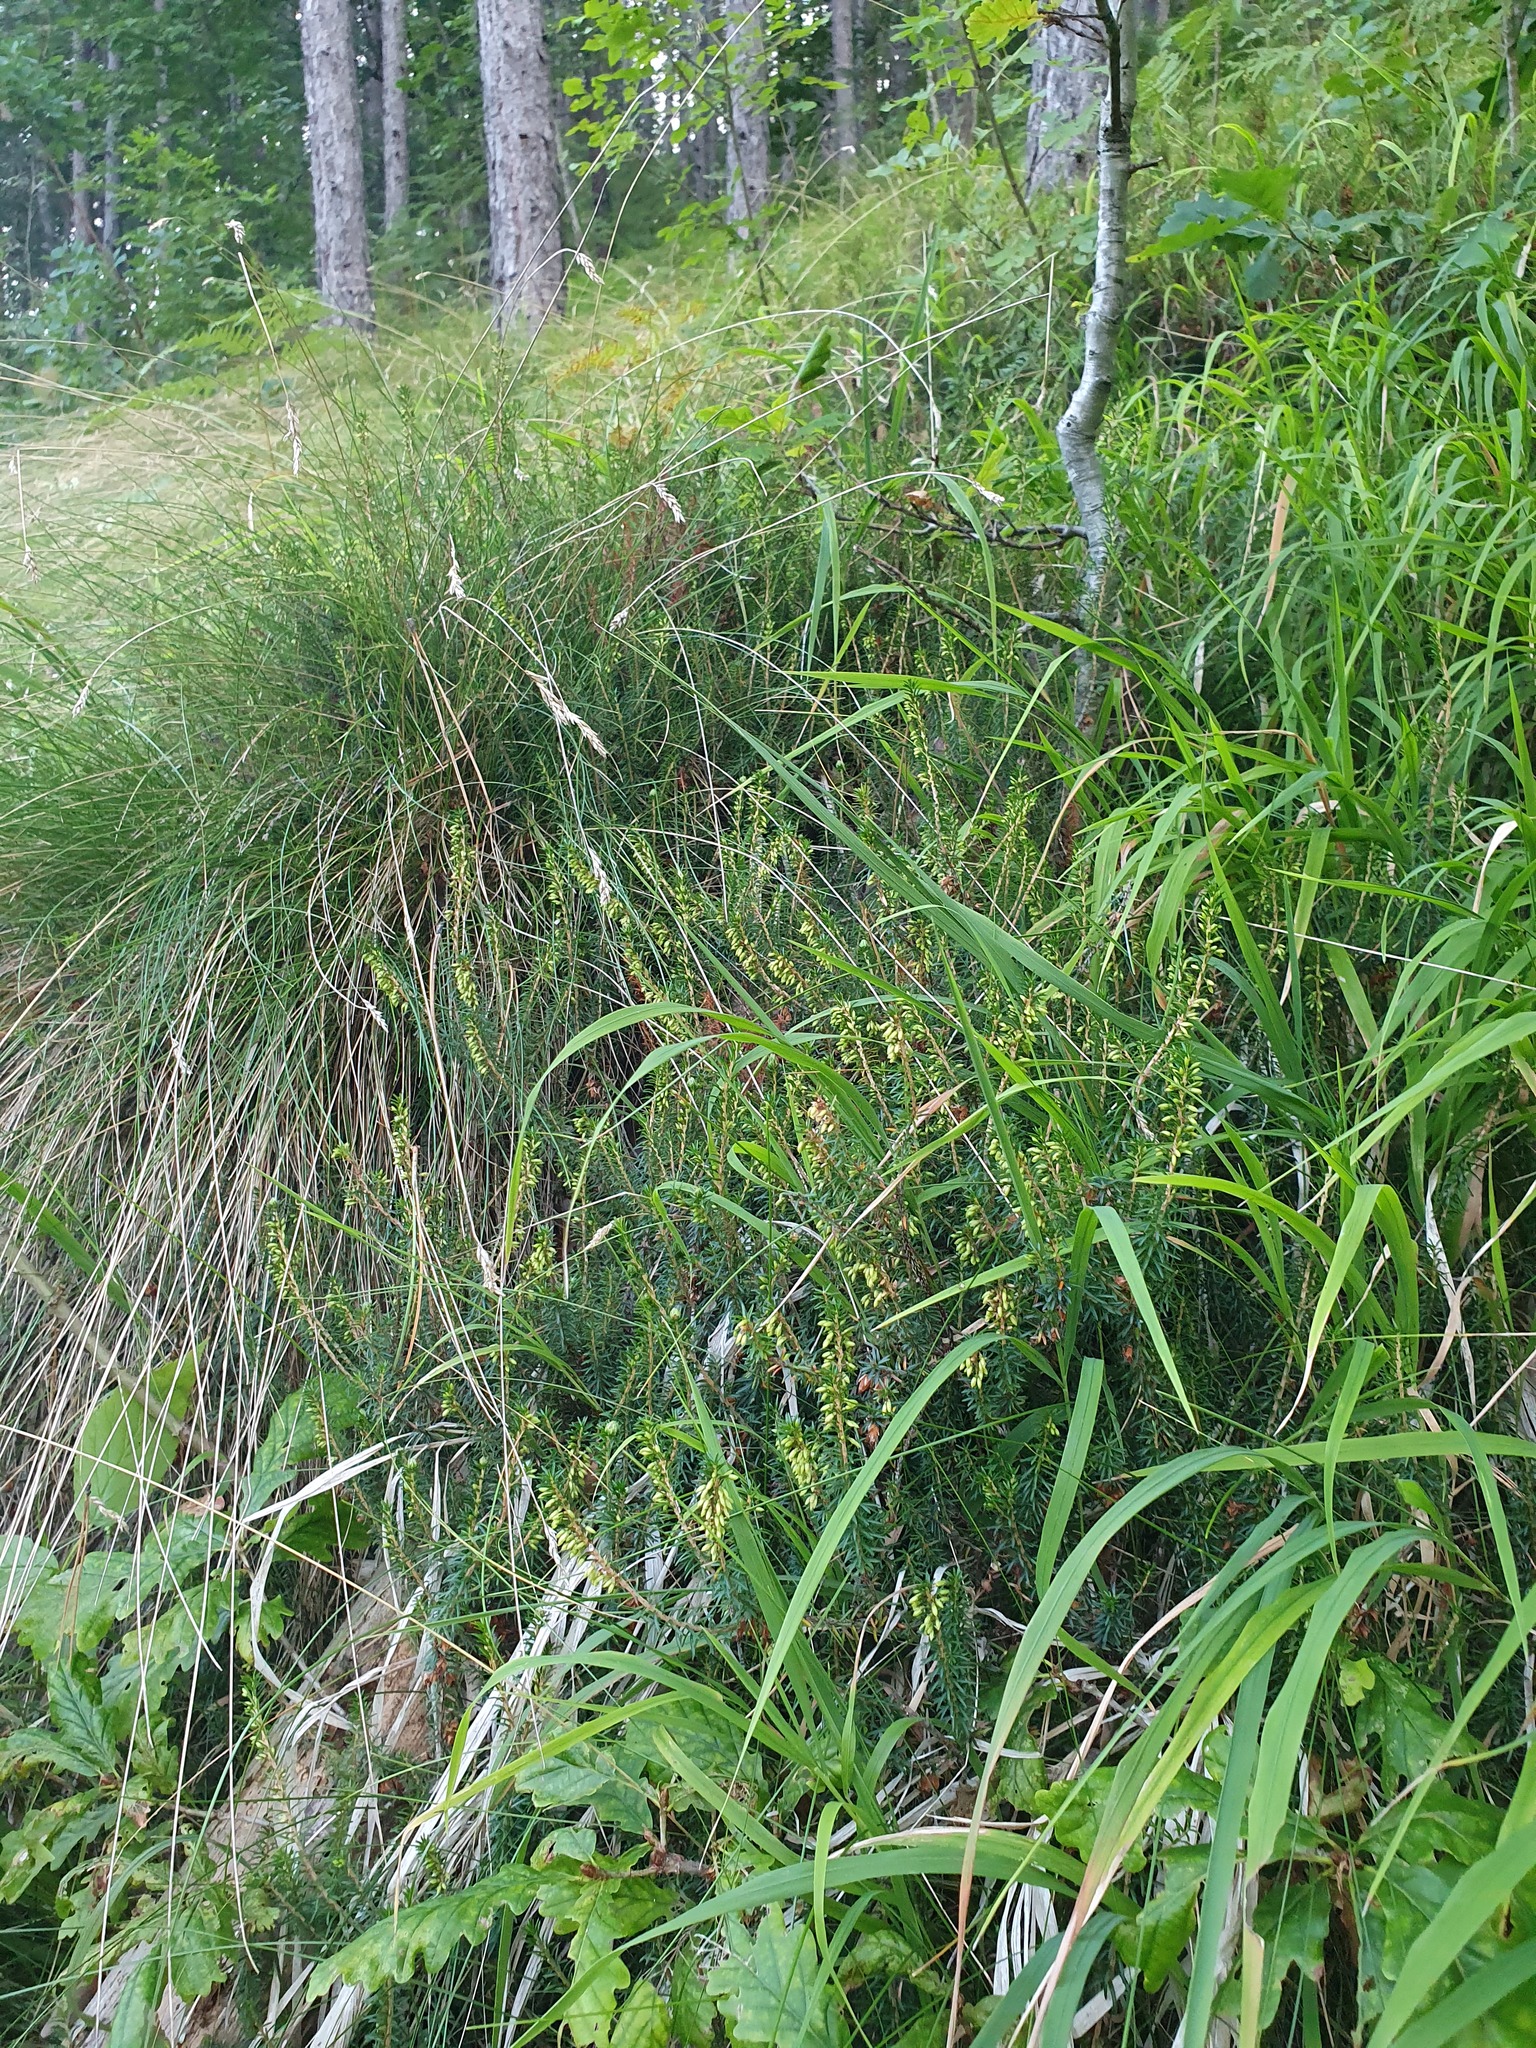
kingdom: Plantae
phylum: Tracheophyta
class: Magnoliopsida
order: Ericales
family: Ericaceae
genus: Erica
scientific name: Erica carnea
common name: Winter heath
